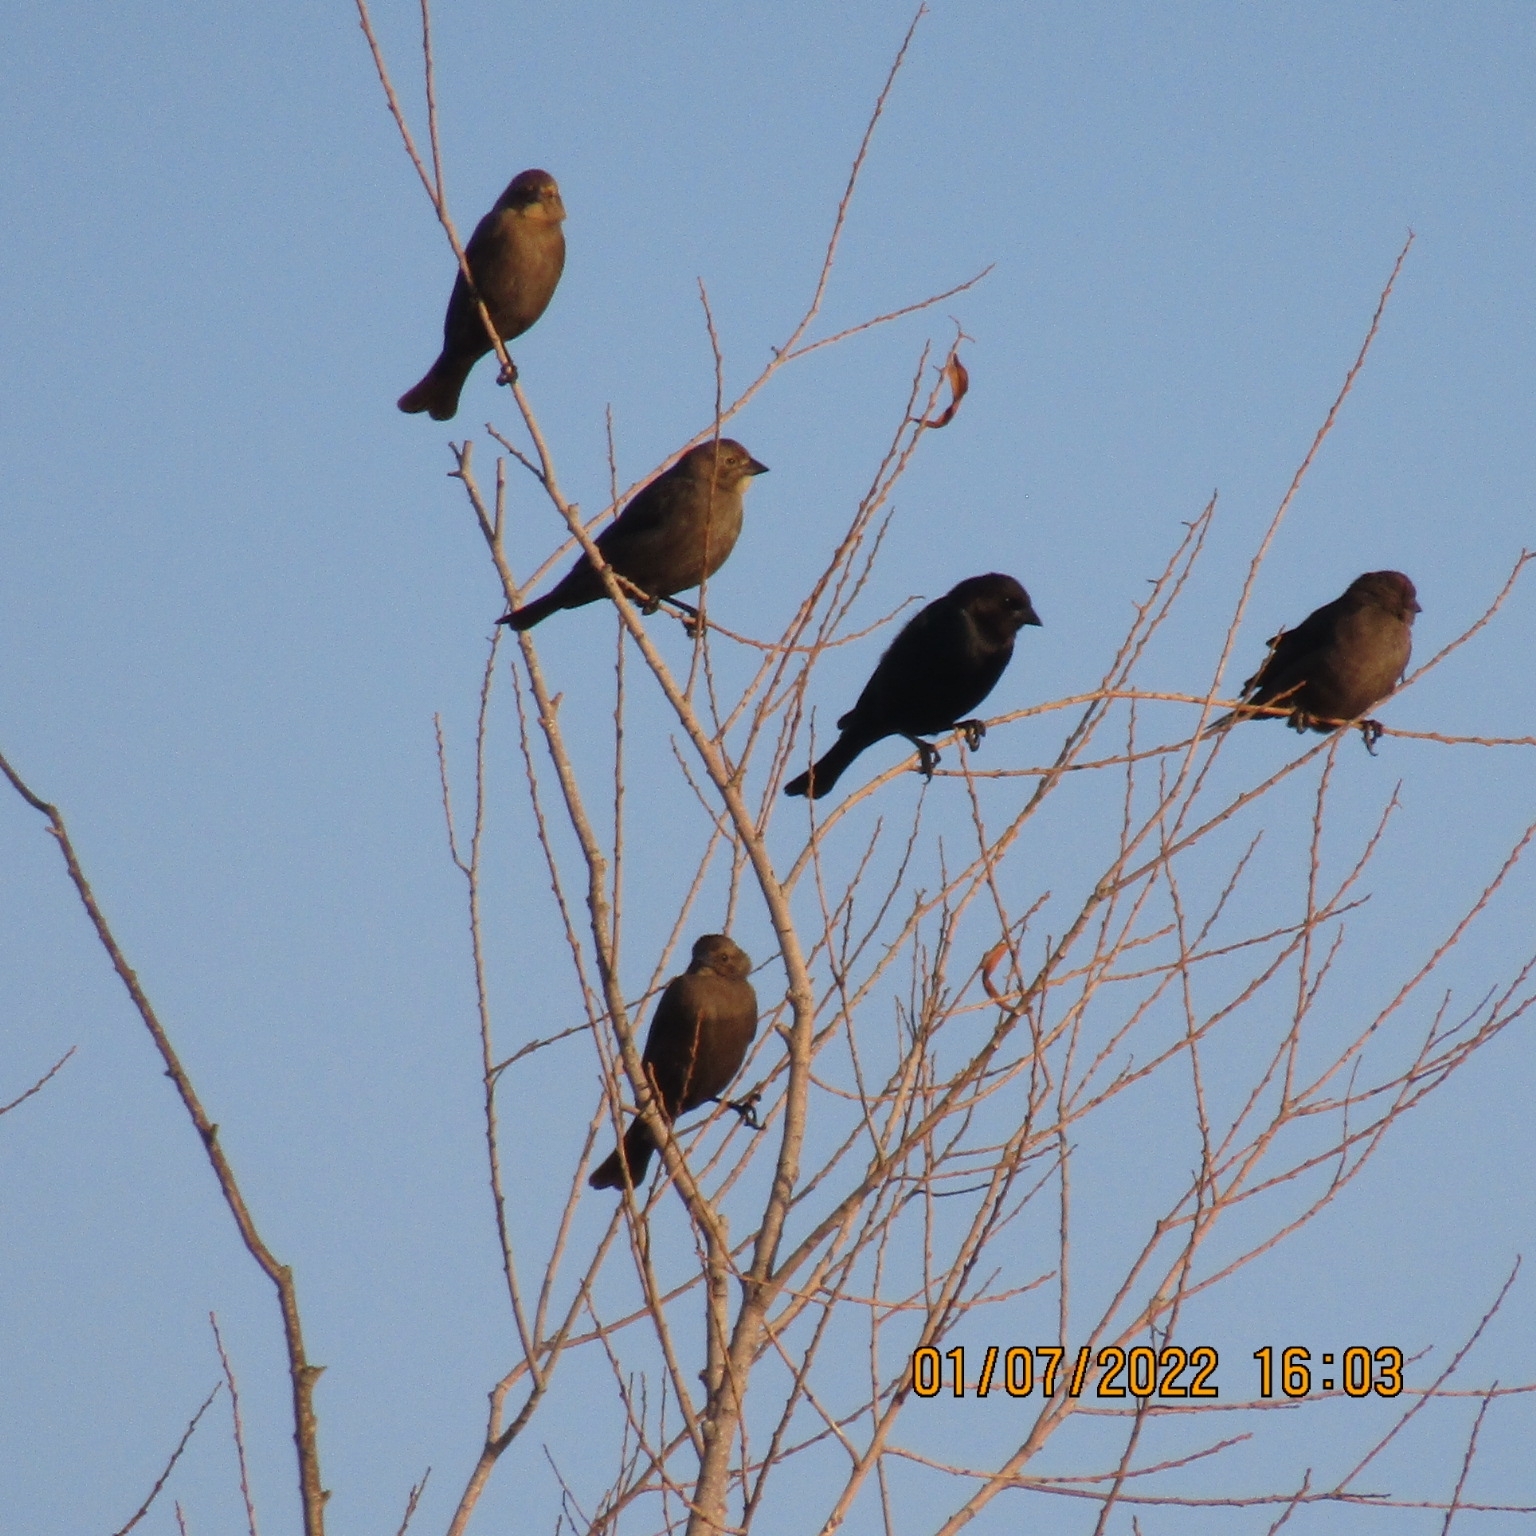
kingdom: Animalia
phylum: Chordata
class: Aves
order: Passeriformes
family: Icteridae
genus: Molothrus
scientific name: Molothrus ater
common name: Brown-headed cowbird
